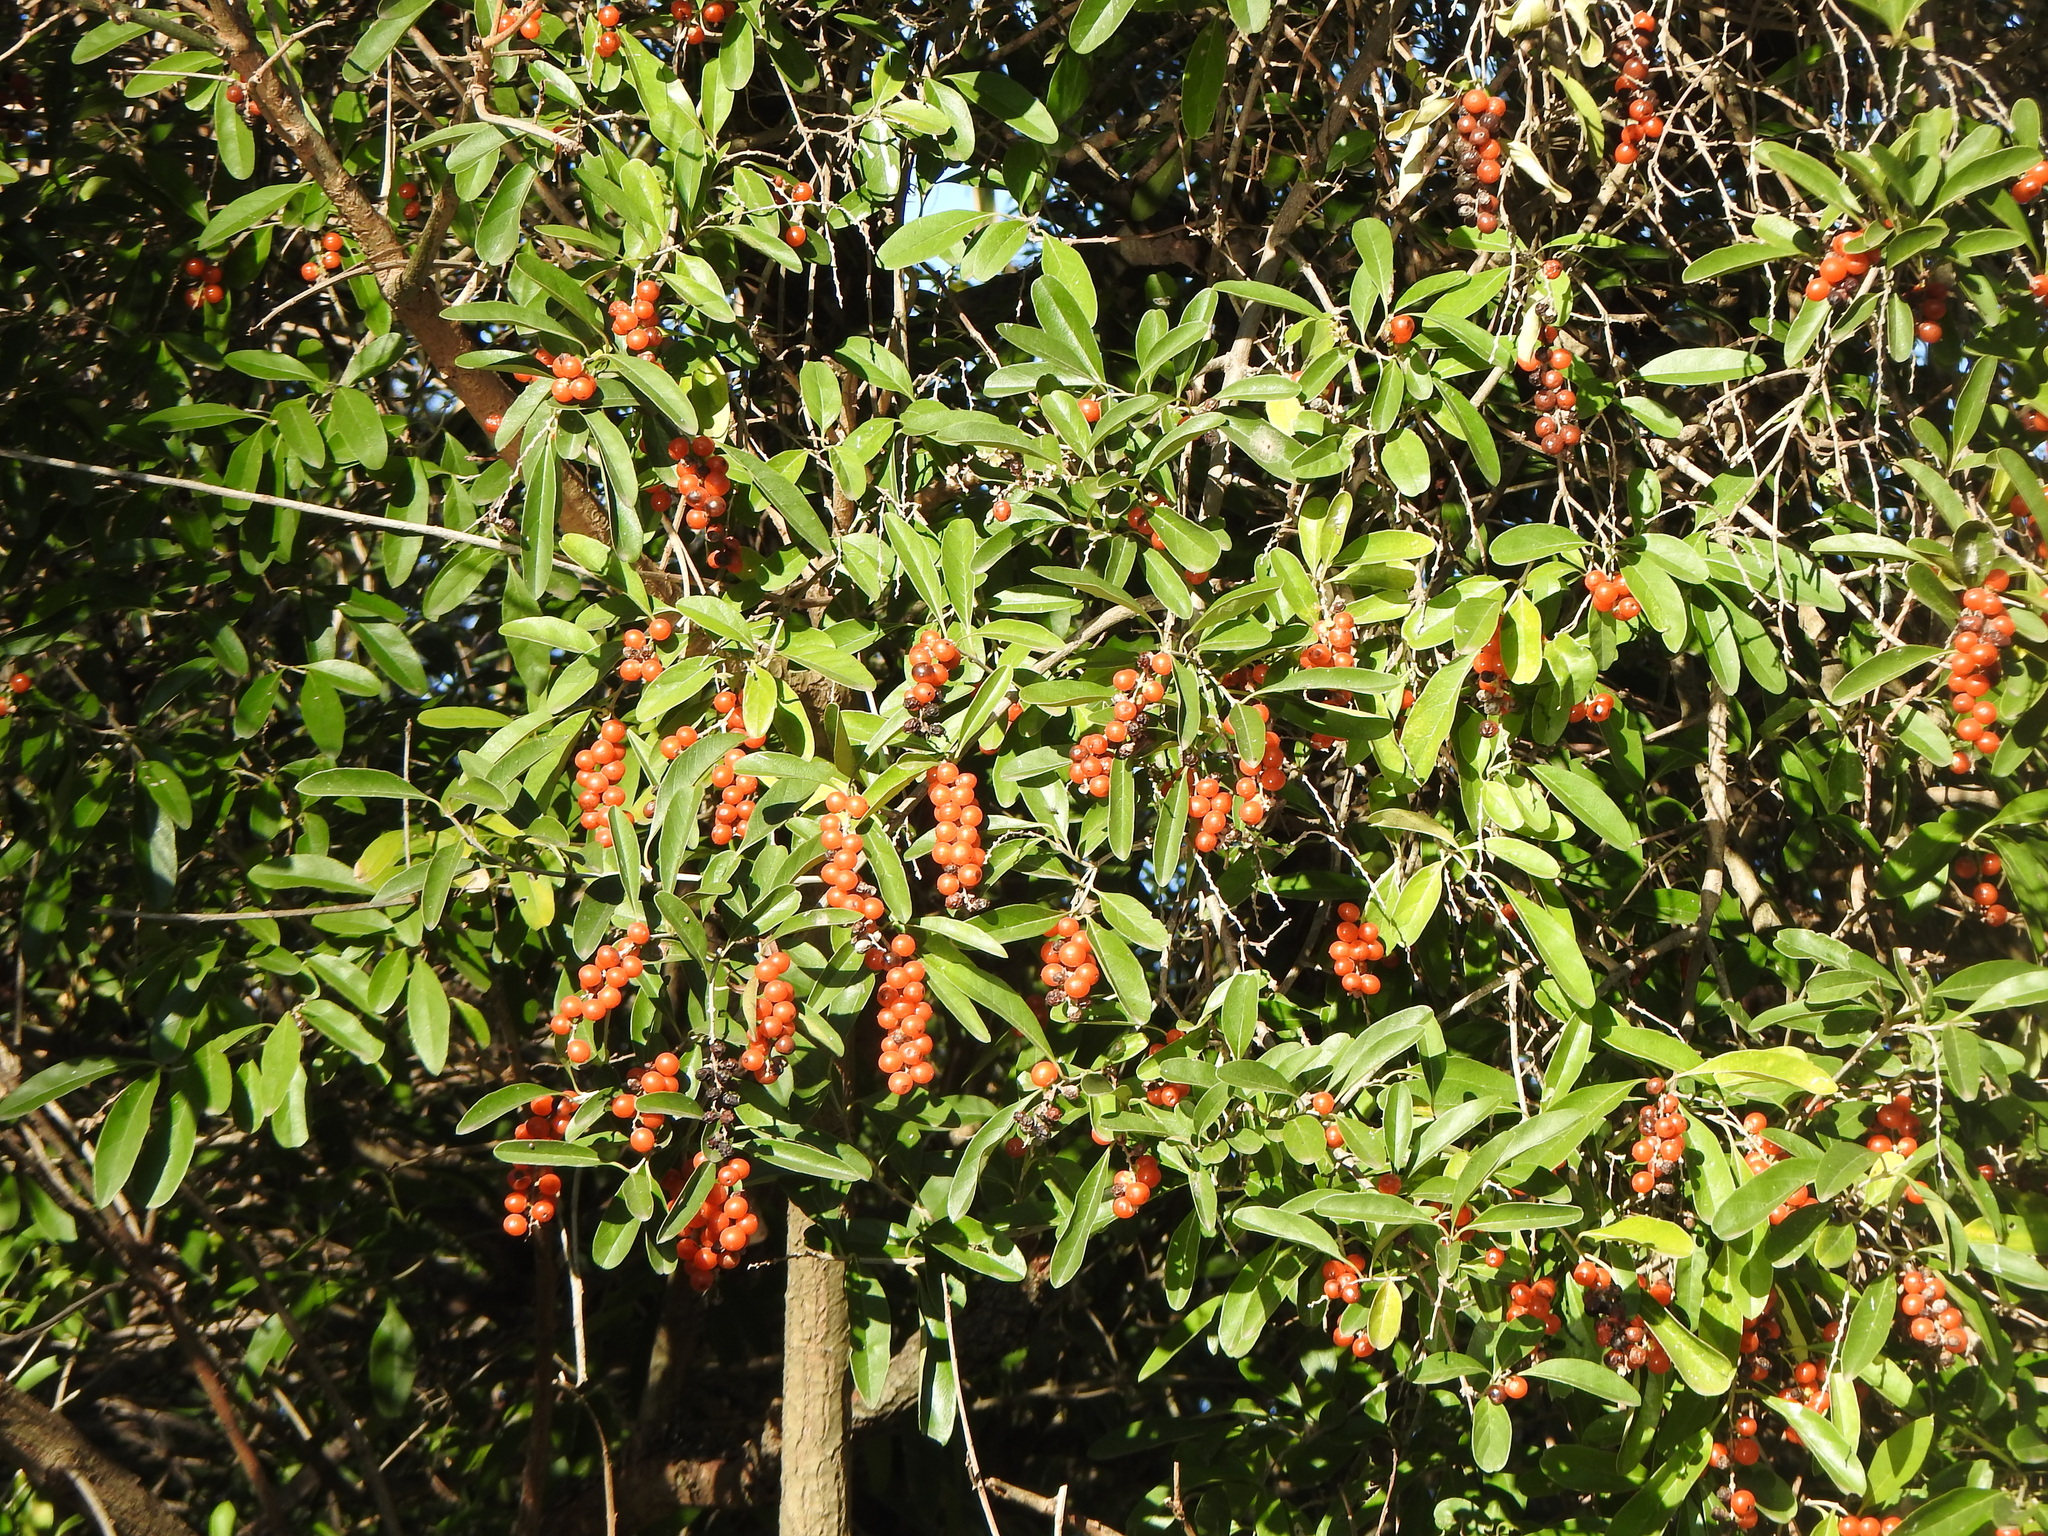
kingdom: Plantae
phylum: Tracheophyta
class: Magnoliopsida
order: Lamiales
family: Verbenaceae
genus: Citharexylum
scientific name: Citharexylum montevidense
